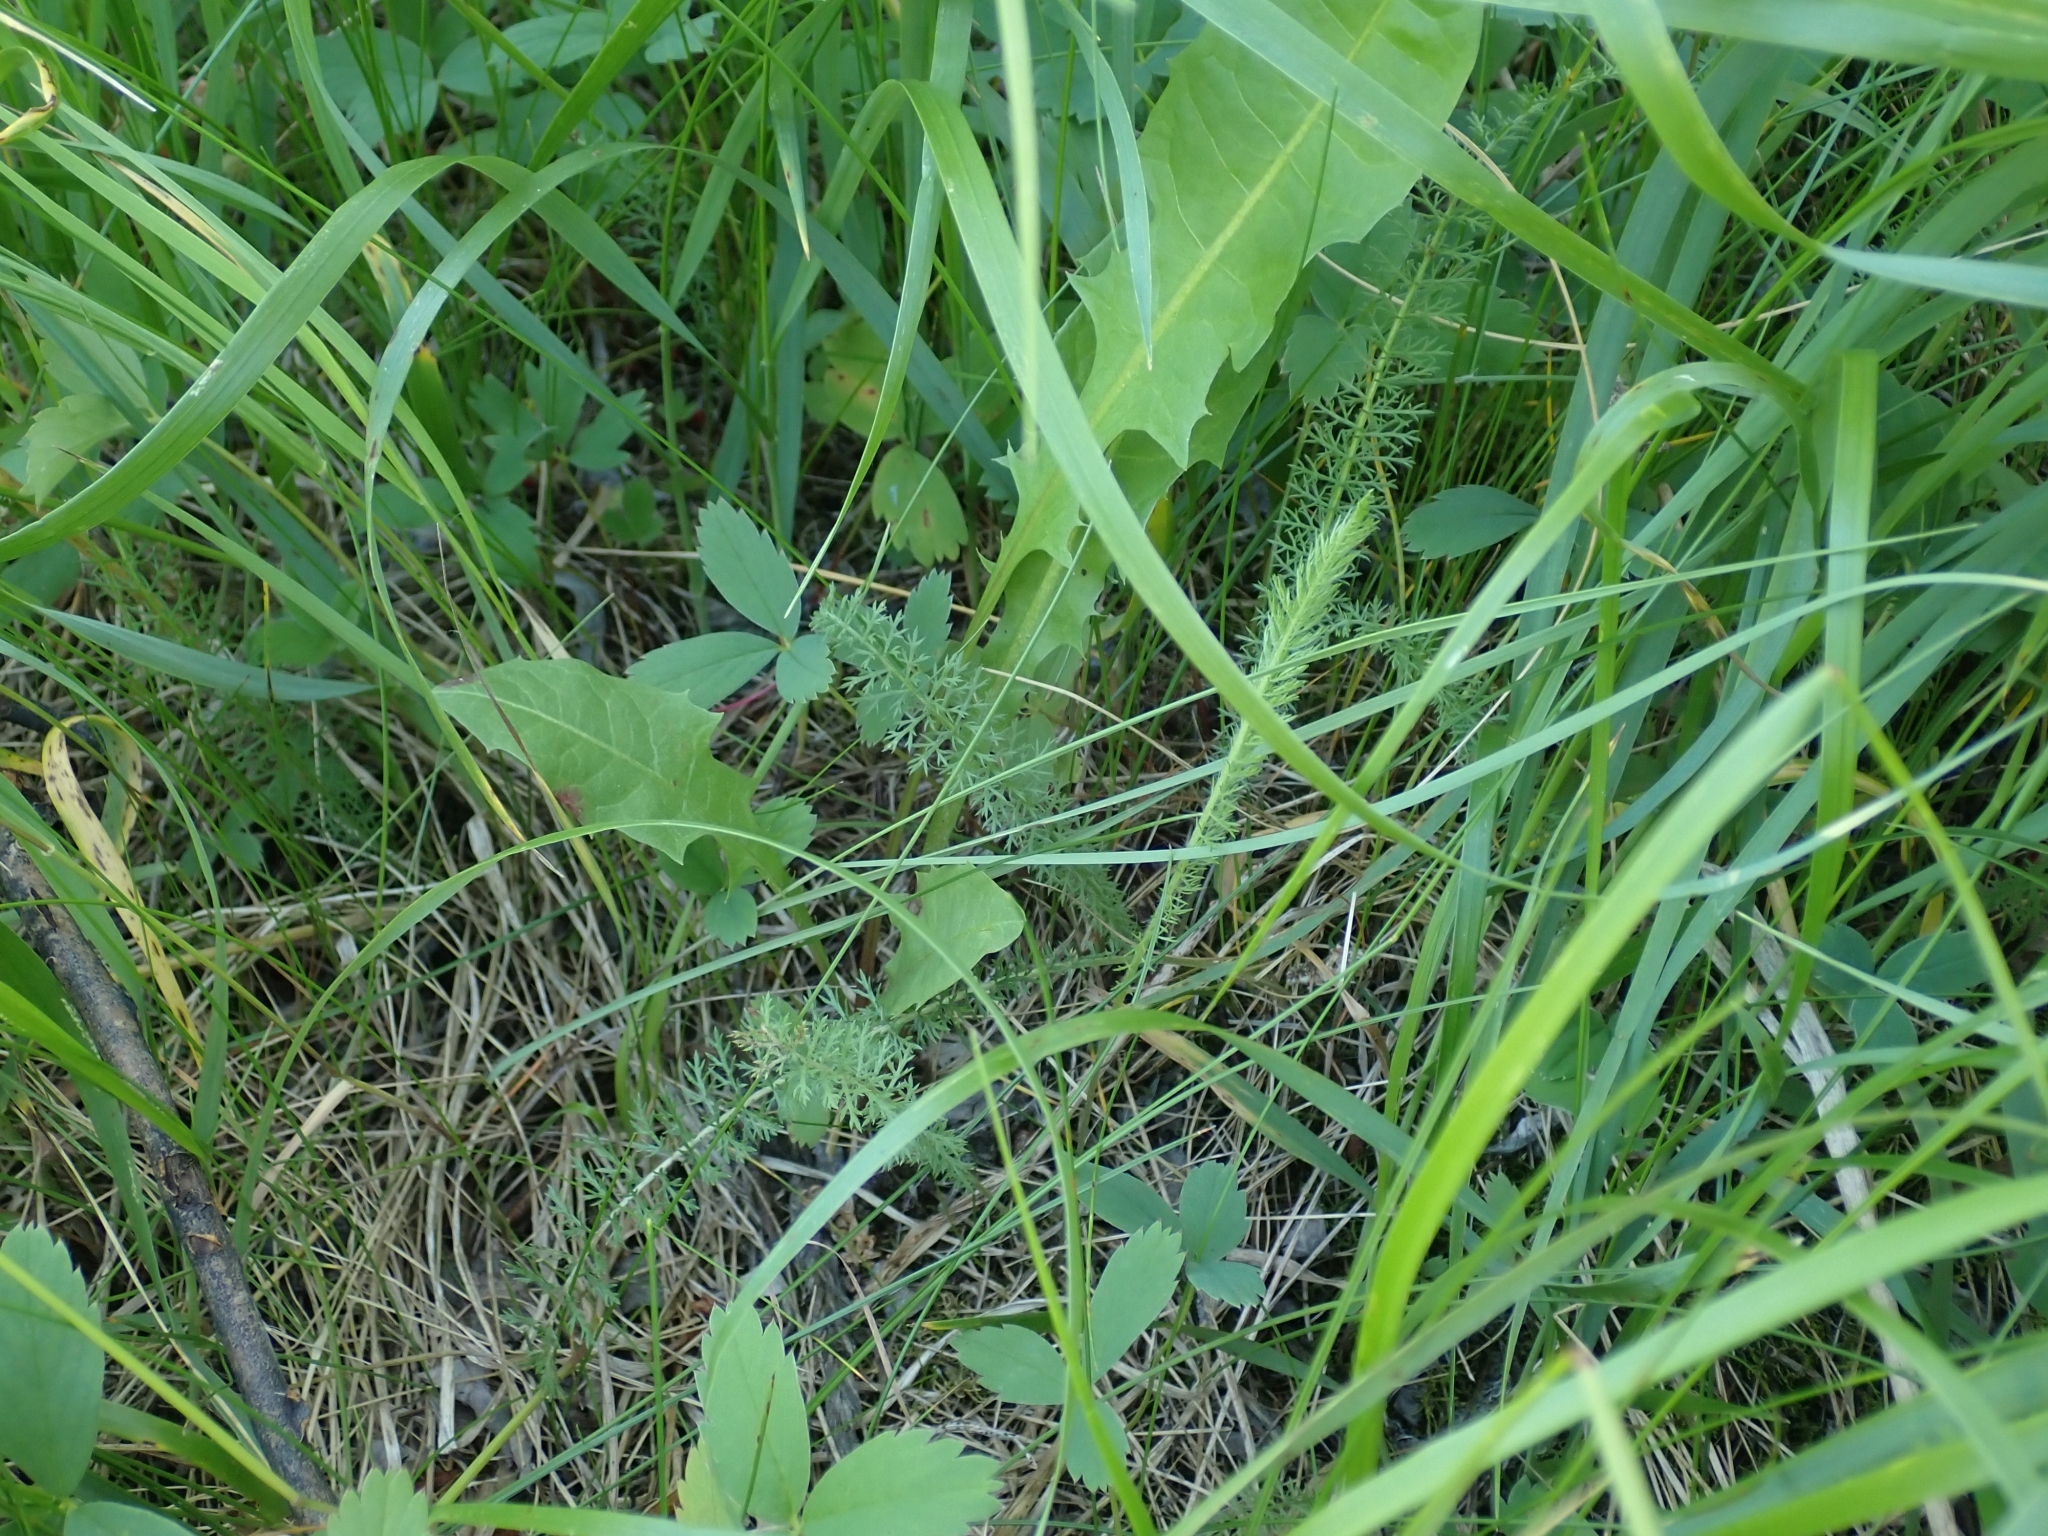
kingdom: Plantae
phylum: Tracheophyta
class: Magnoliopsida
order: Asterales
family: Asteraceae
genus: Achillea
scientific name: Achillea millefolium
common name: Yarrow
